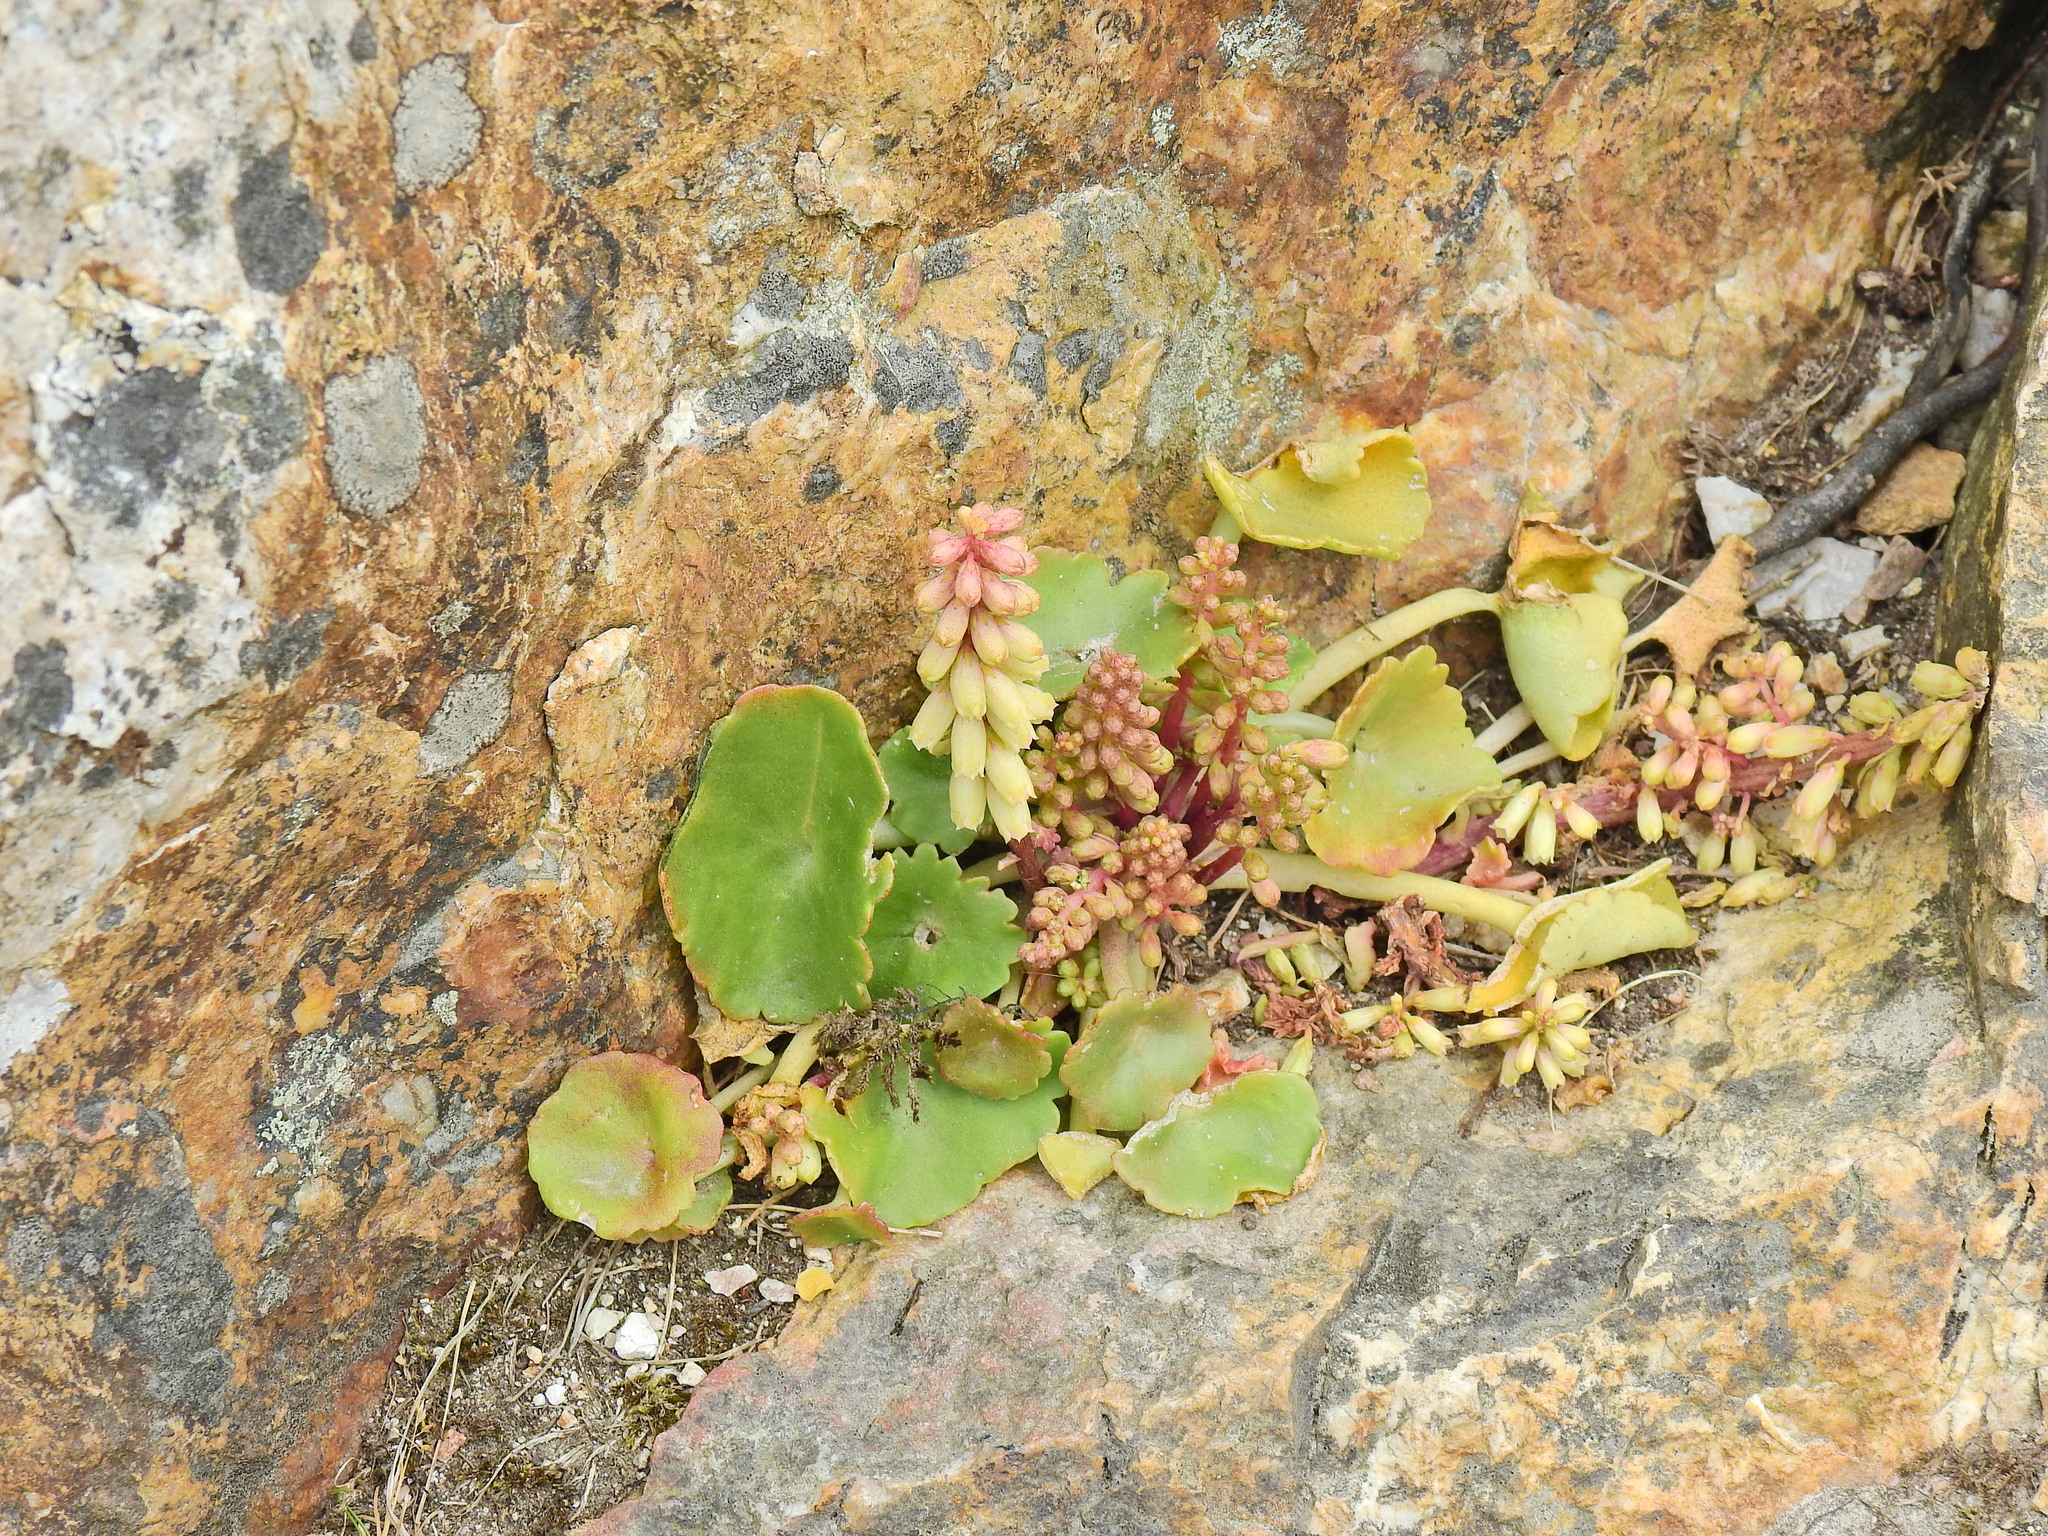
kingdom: Plantae
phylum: Tracheophyta
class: Magnoliopsida
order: Saxifragales
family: Crassulaceae
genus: Umbilicus
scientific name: Umbilicus rupestris
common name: Navelwort
